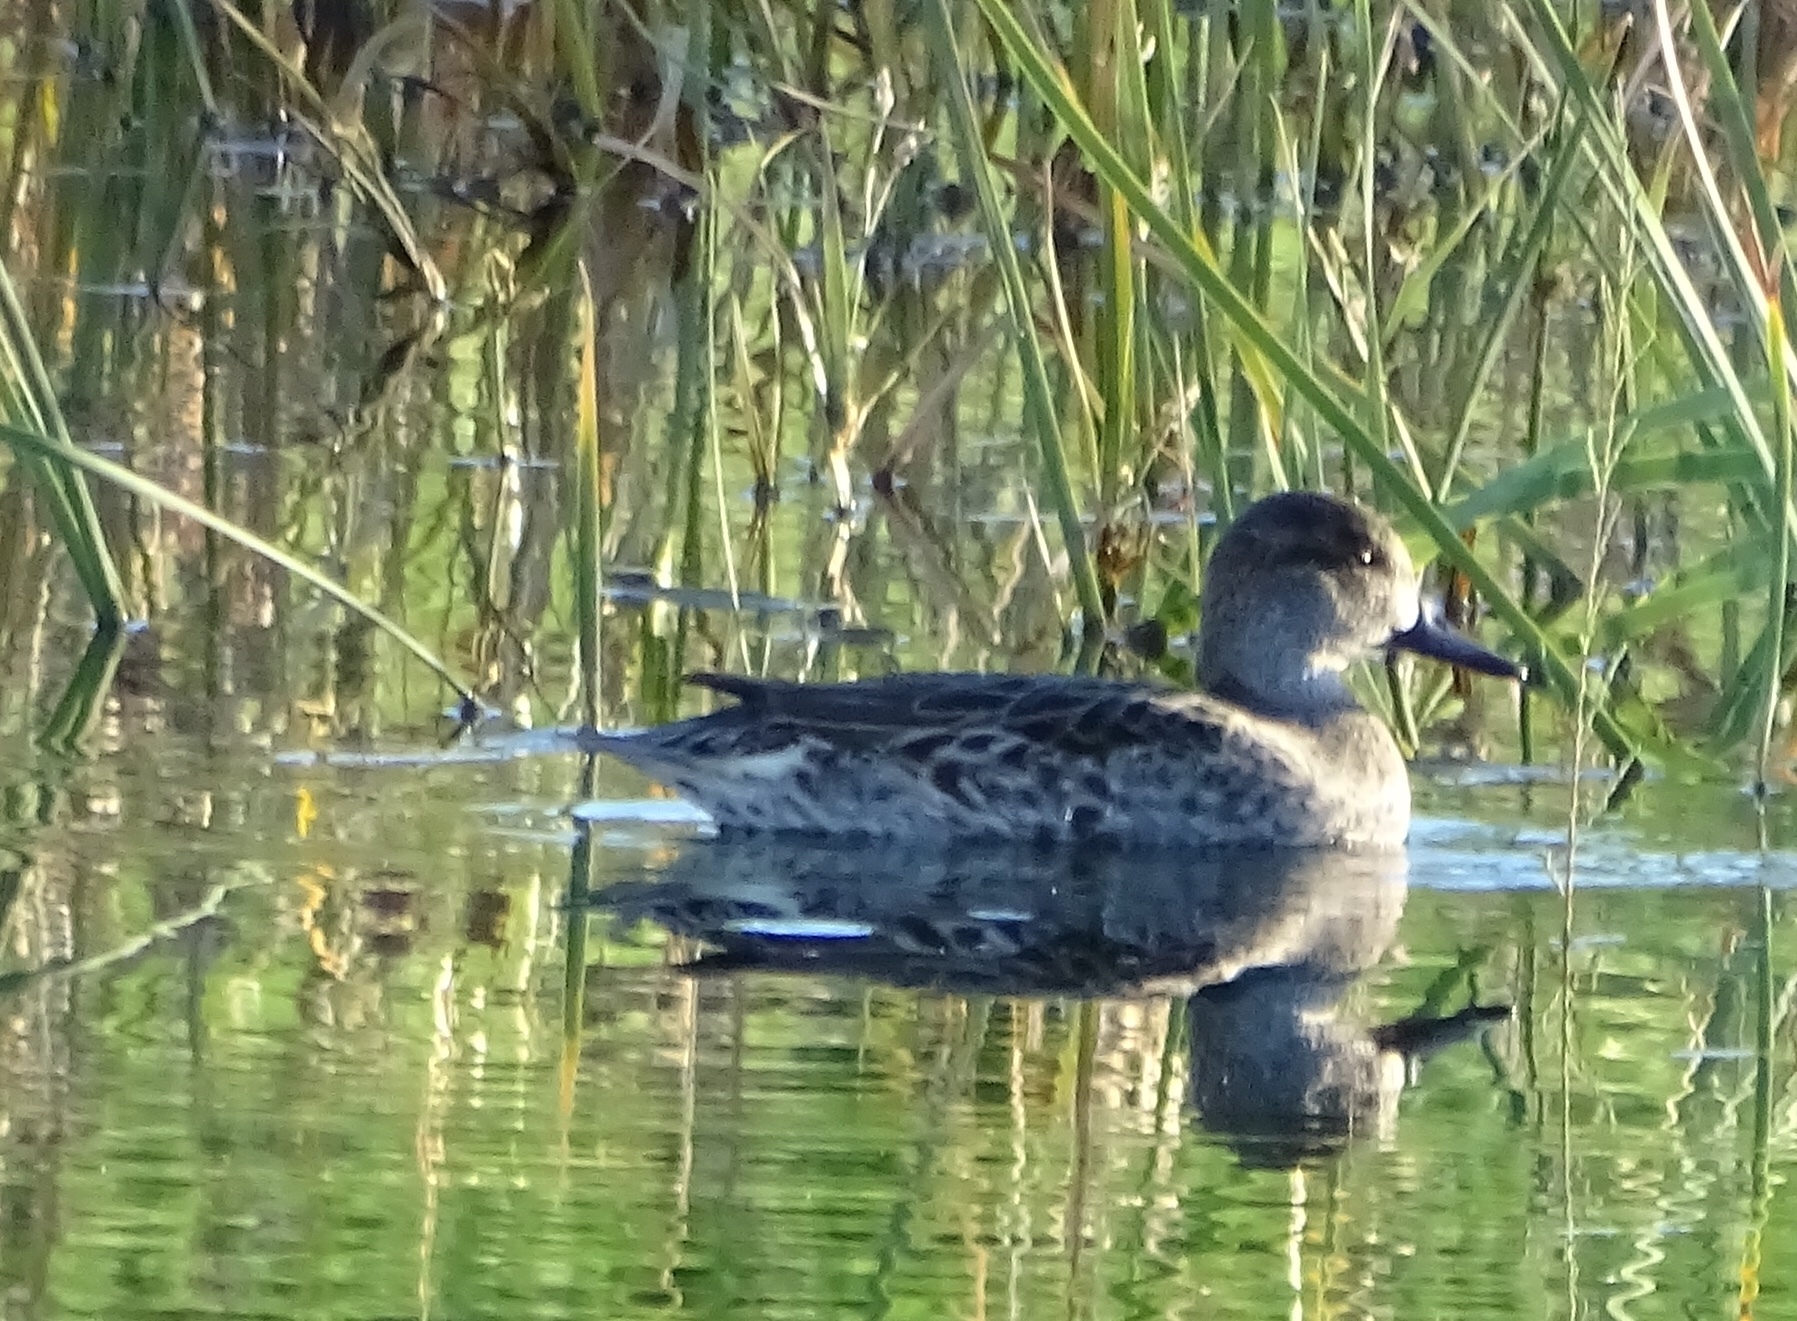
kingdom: Animalia
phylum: Chordata
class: Aves
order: Anseriformes
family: Anatidae
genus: Anas
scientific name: Anas crecca
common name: Eurasian teal
